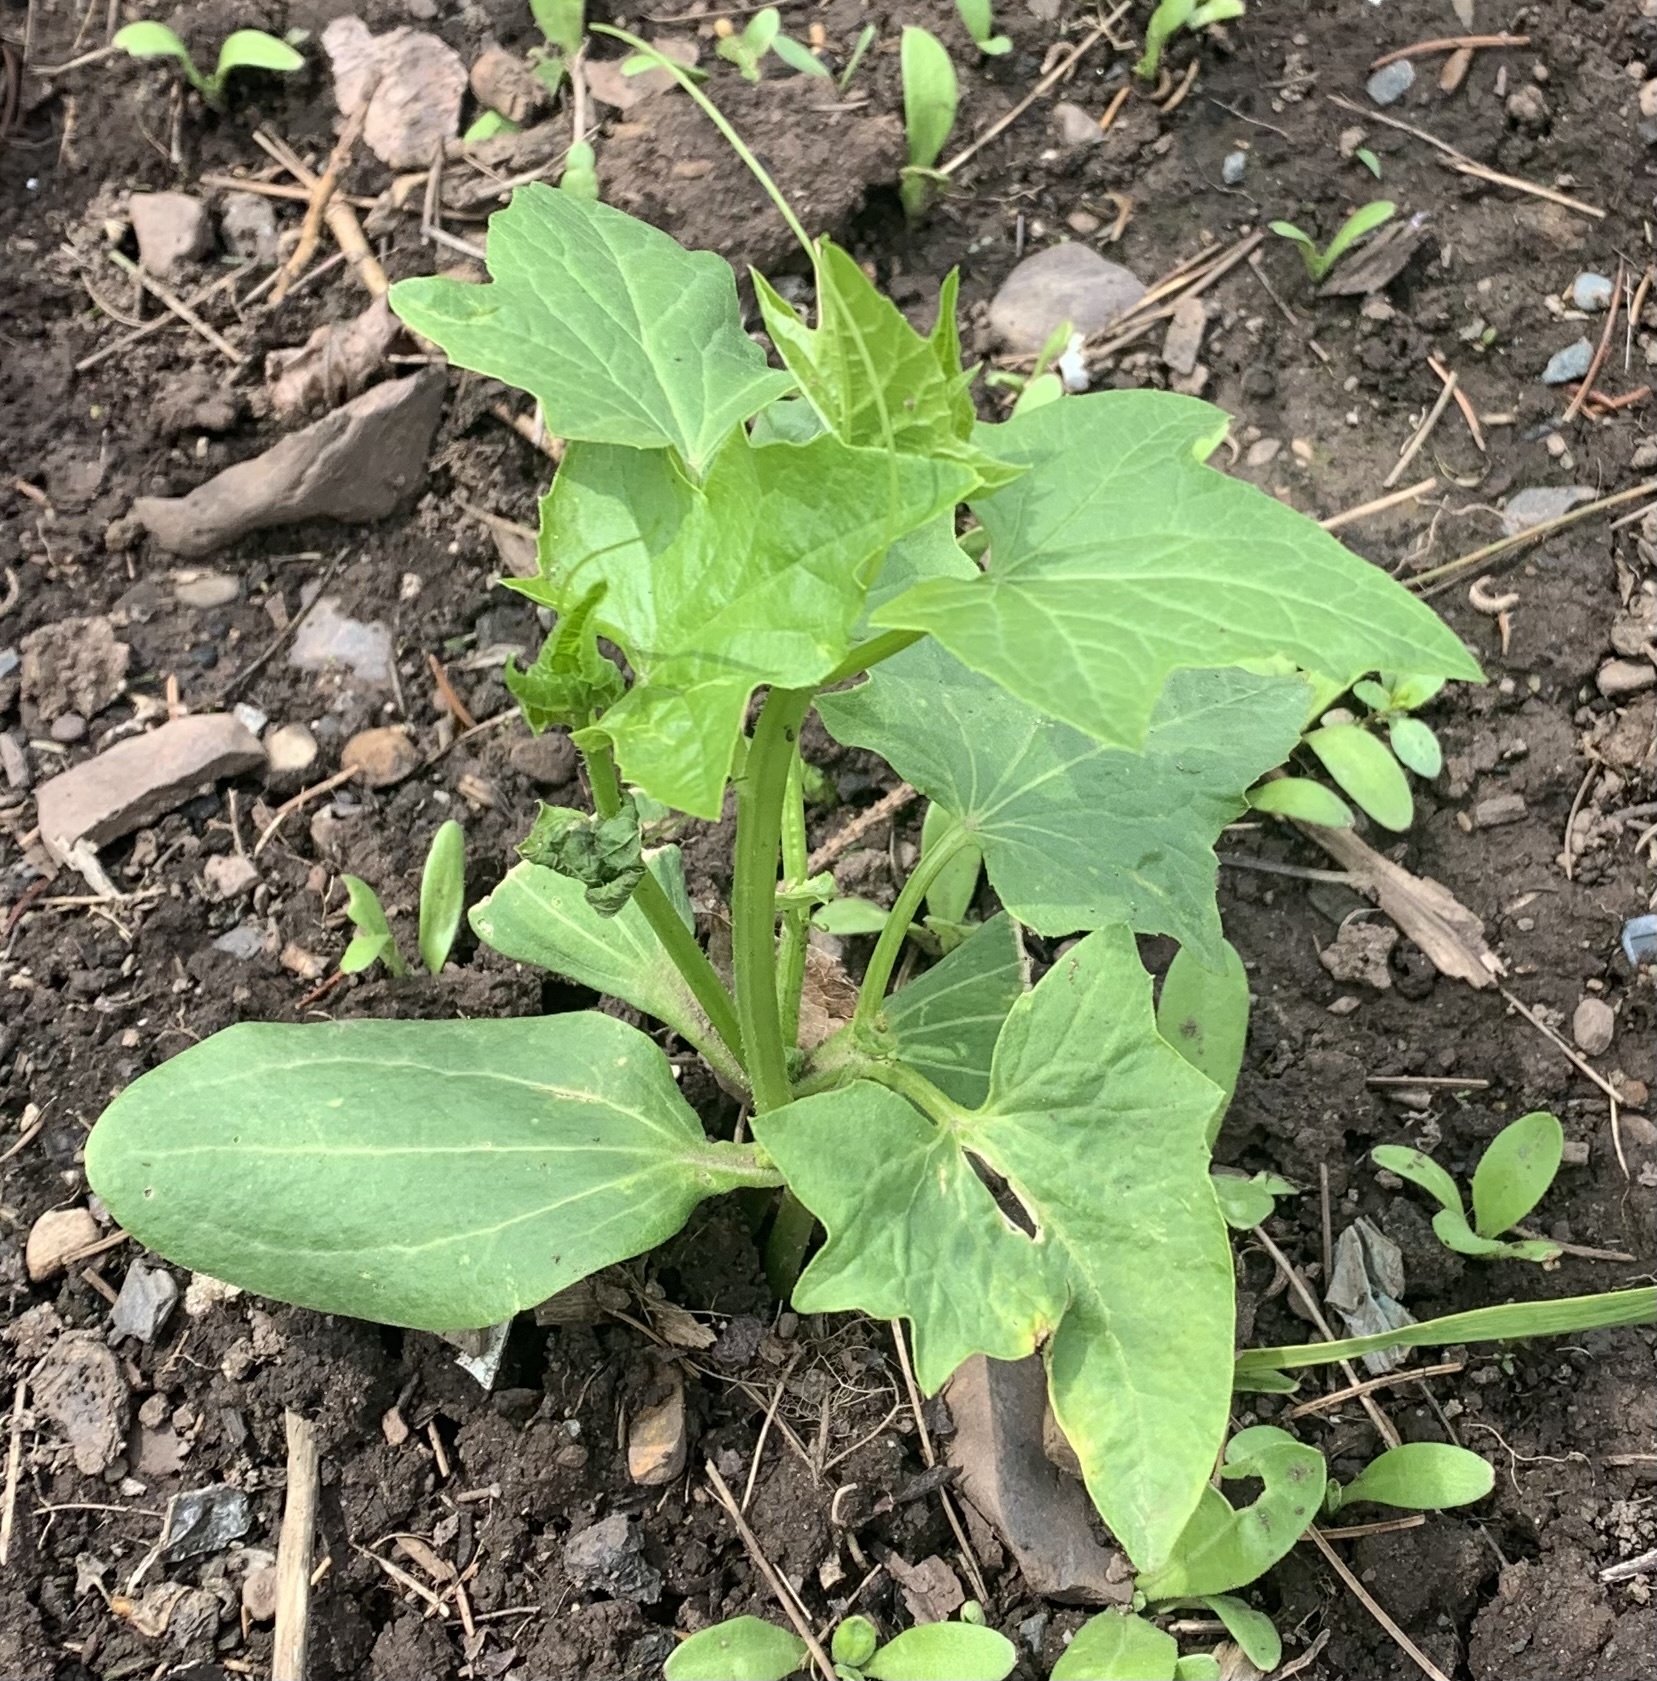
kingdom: Plantae
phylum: Tracheophyta
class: Magnoliopsida
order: Cucurbitales
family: Cucurbitaceae
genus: Echinocystis
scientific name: Echinocystis lobata
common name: Wild cucumber
